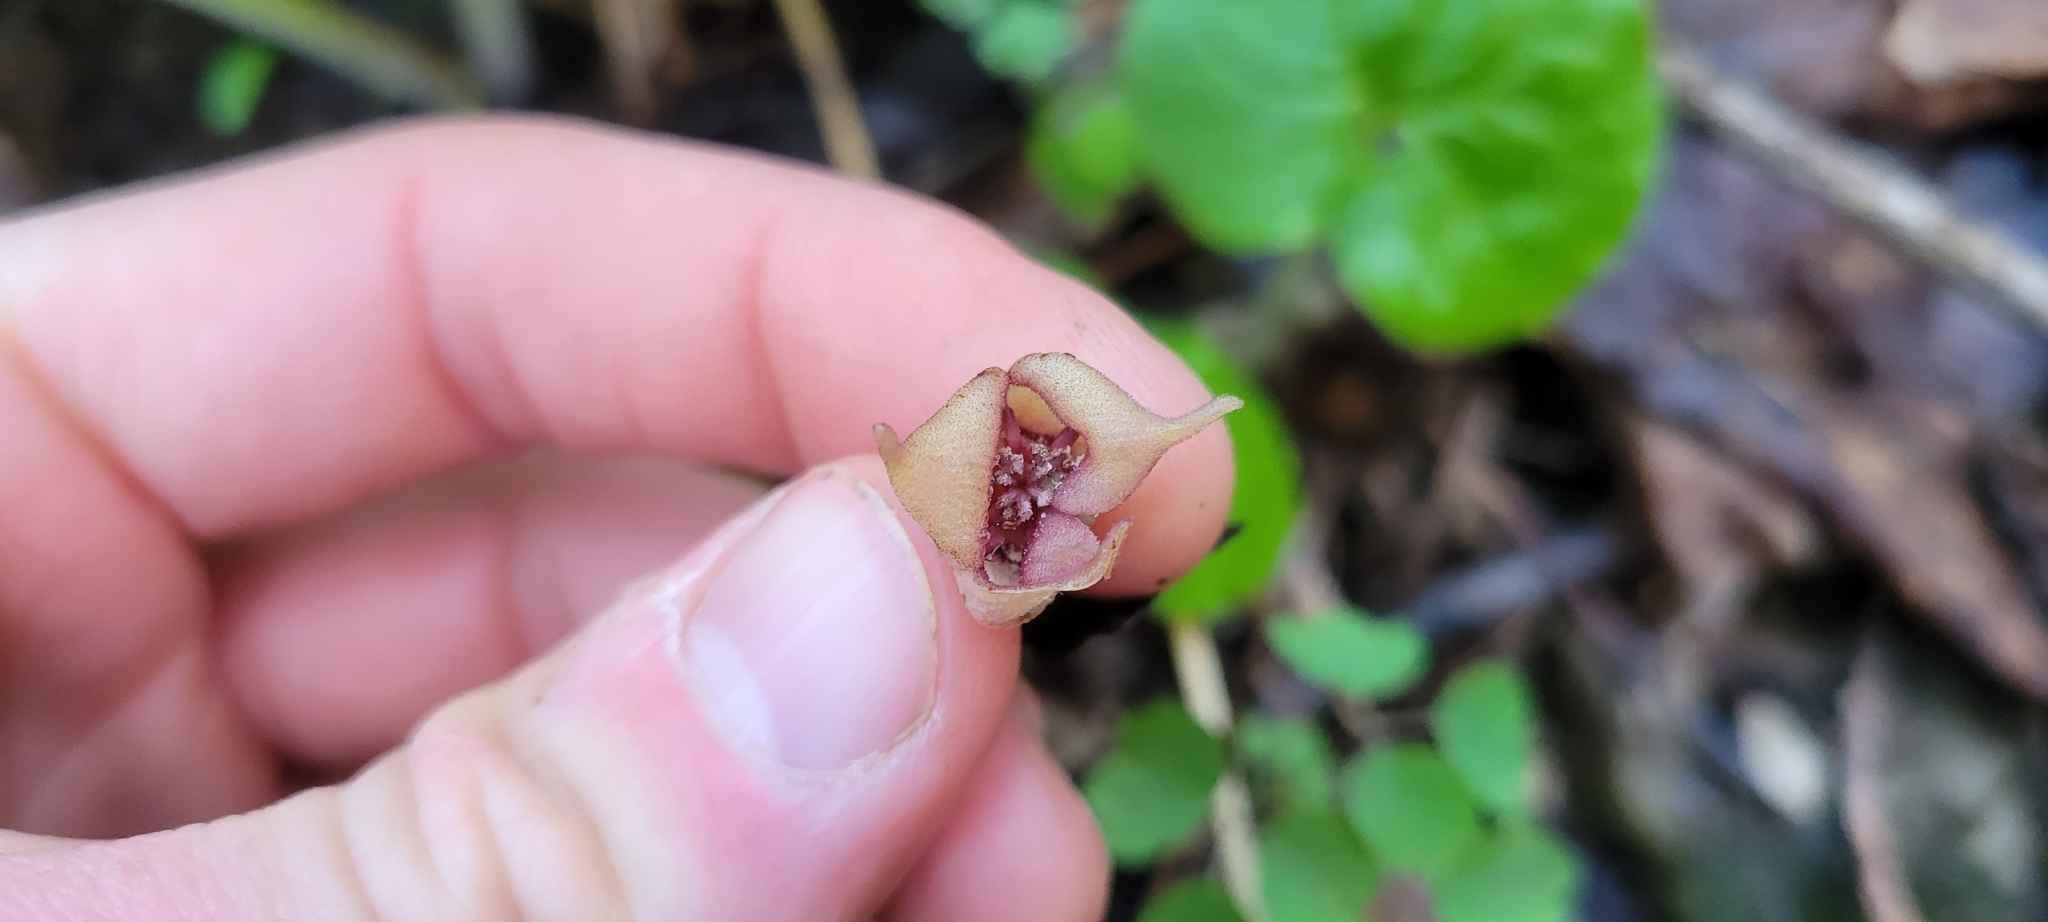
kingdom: Plantae
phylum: Tracheophyta
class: Magnoliopsida
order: Piperales
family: Aristolochiaceae
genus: Asarum
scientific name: Asarum canadense
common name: Wild ginger
